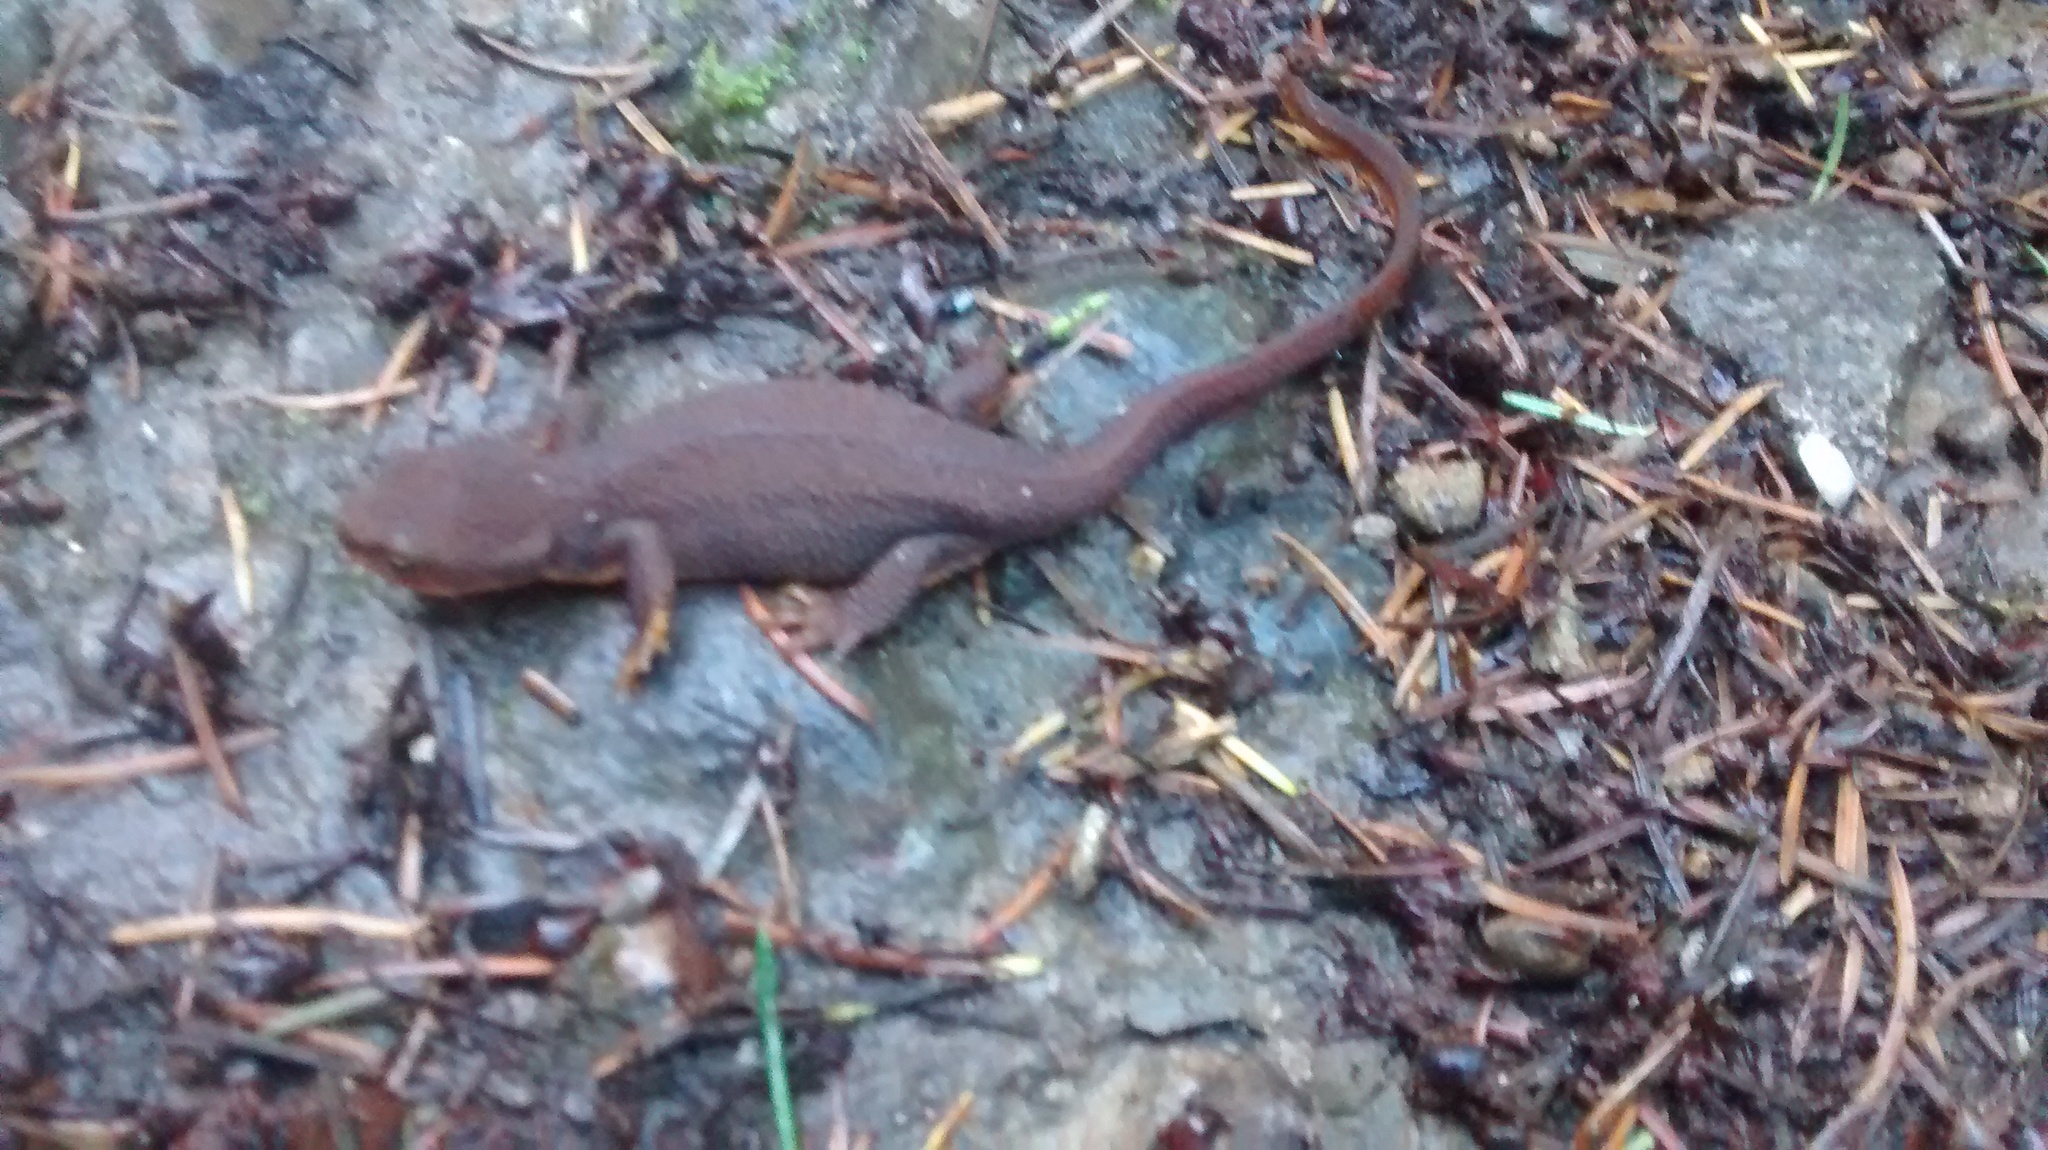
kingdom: Animalia
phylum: Chordata
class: Amphibia
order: Caudata
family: Salamandridae
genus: Taricha
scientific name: Taricha granulosa
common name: Roughskin newt
